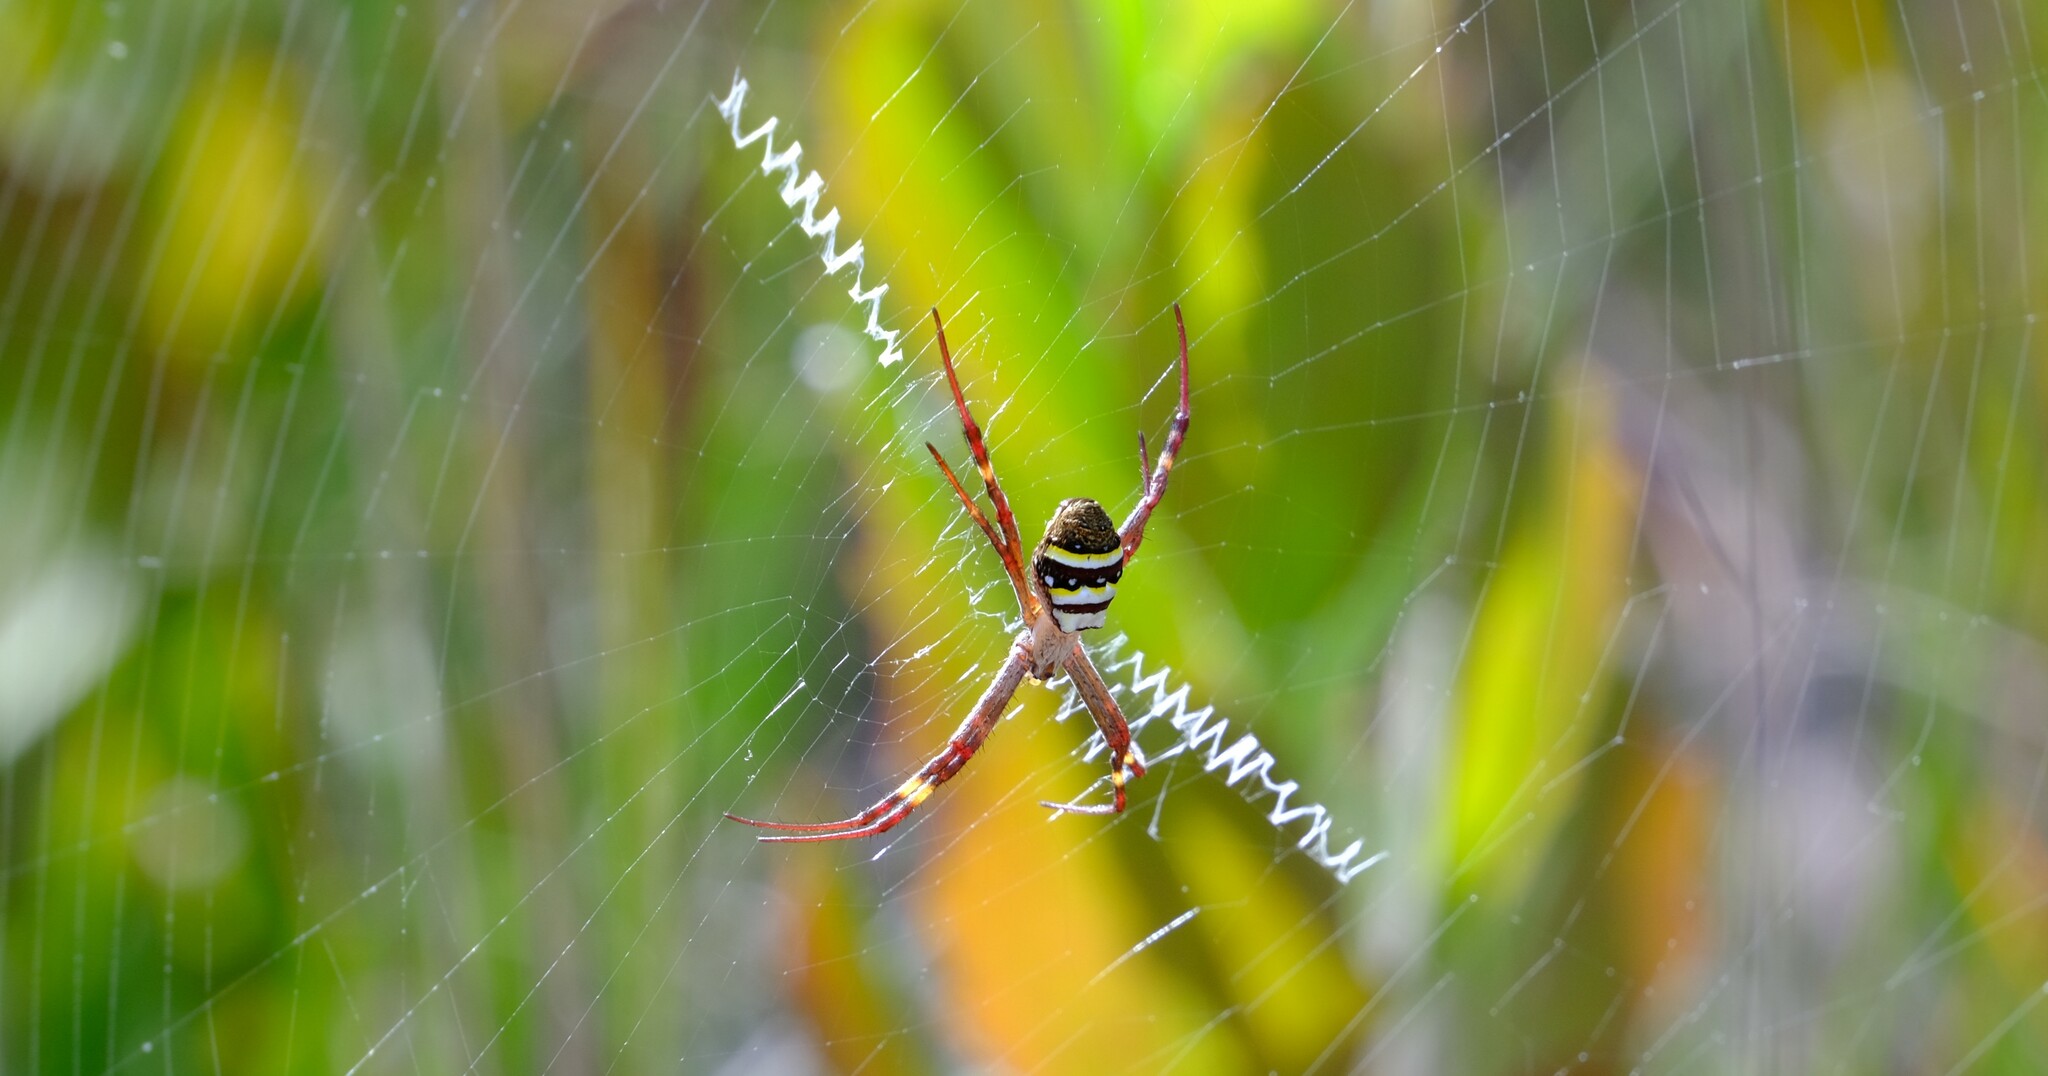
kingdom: Animalia
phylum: Arthropoda
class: Arachnida
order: Araneae
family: Araneidae
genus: Argiope
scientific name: Argiope keyserlingi
